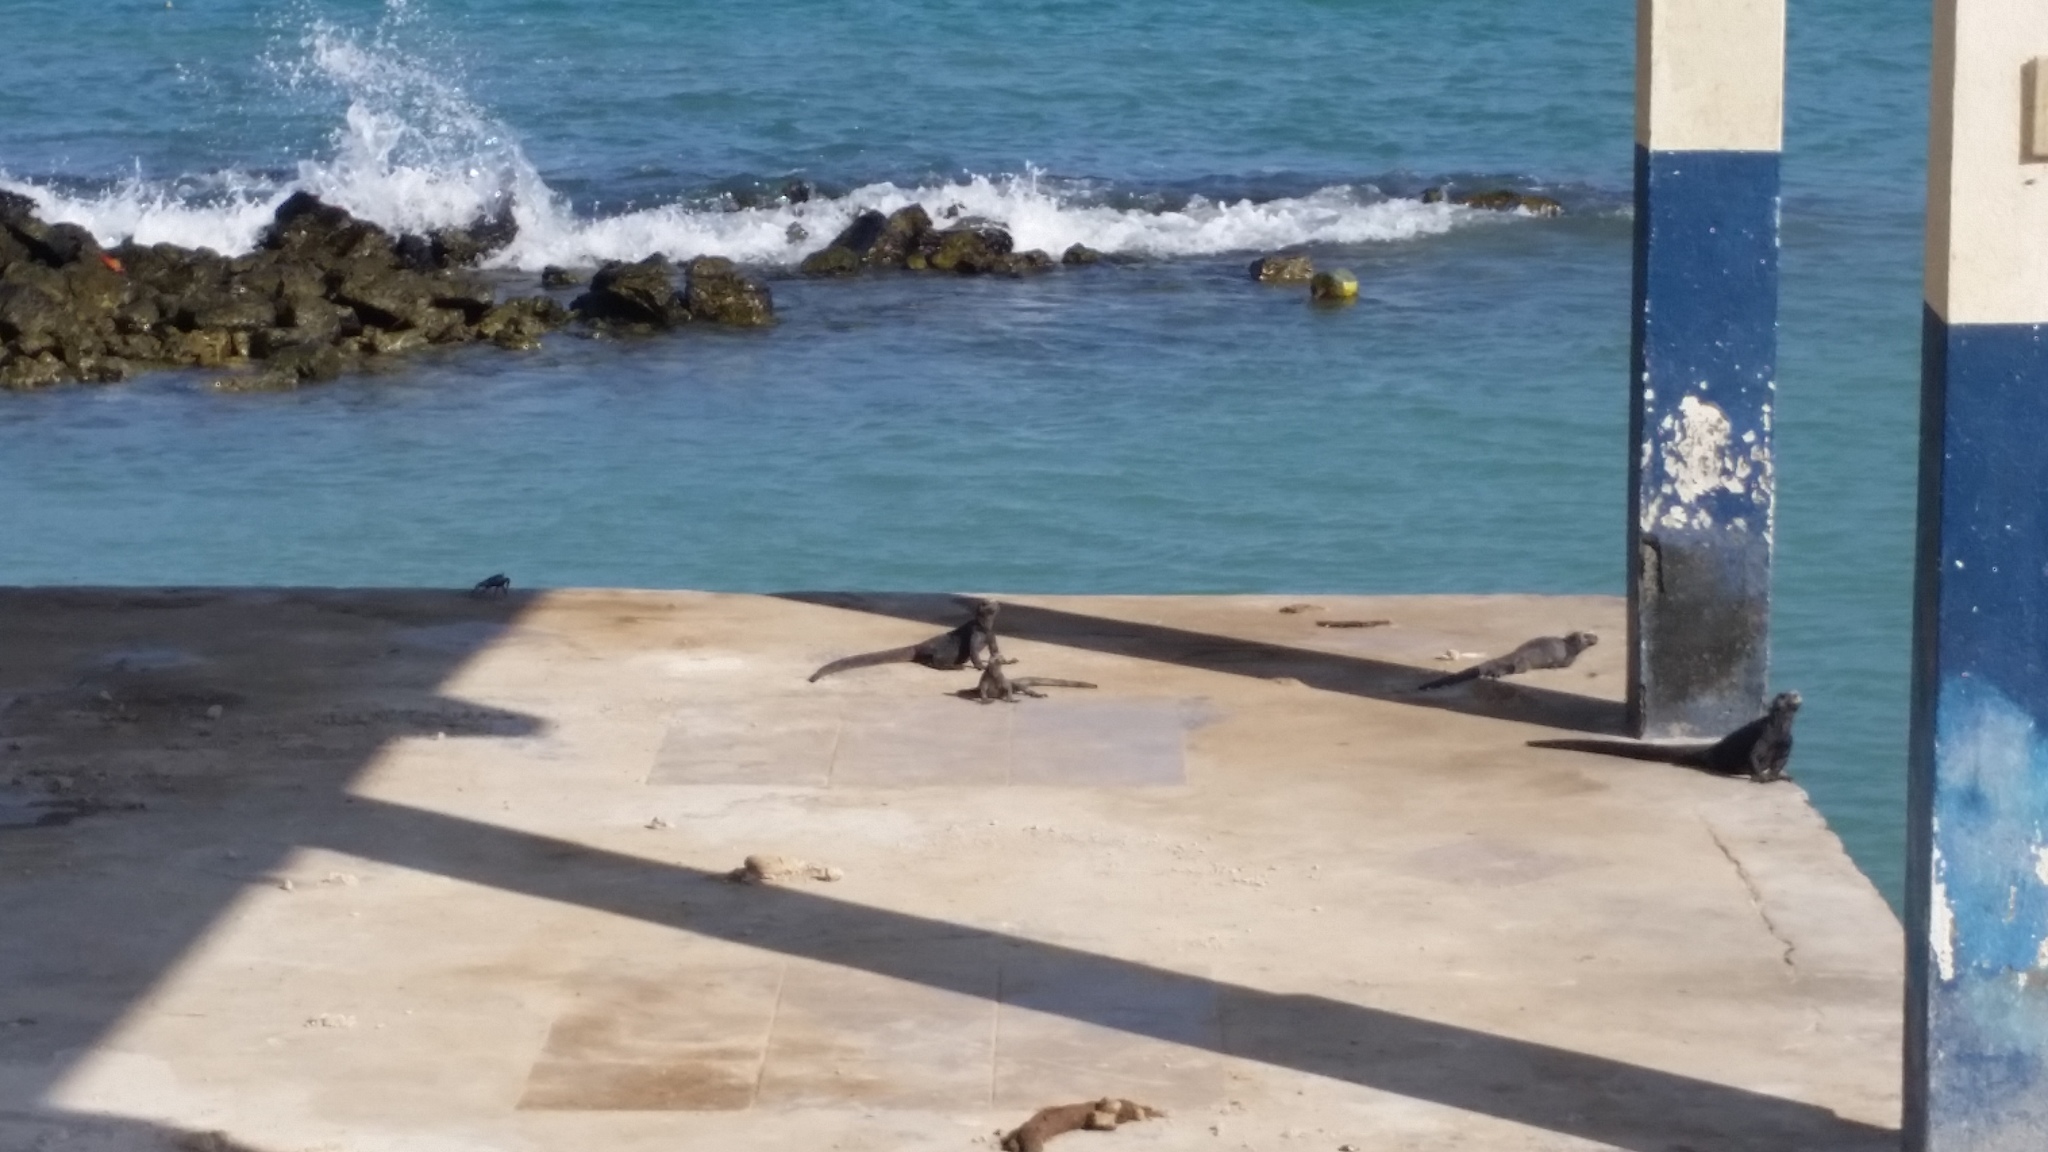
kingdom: Animalia
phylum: Chordata
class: Squamata
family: Iguanidae
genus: Amblyrhynchus
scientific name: Amblyrhynchus cristatus
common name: Marine iguana
